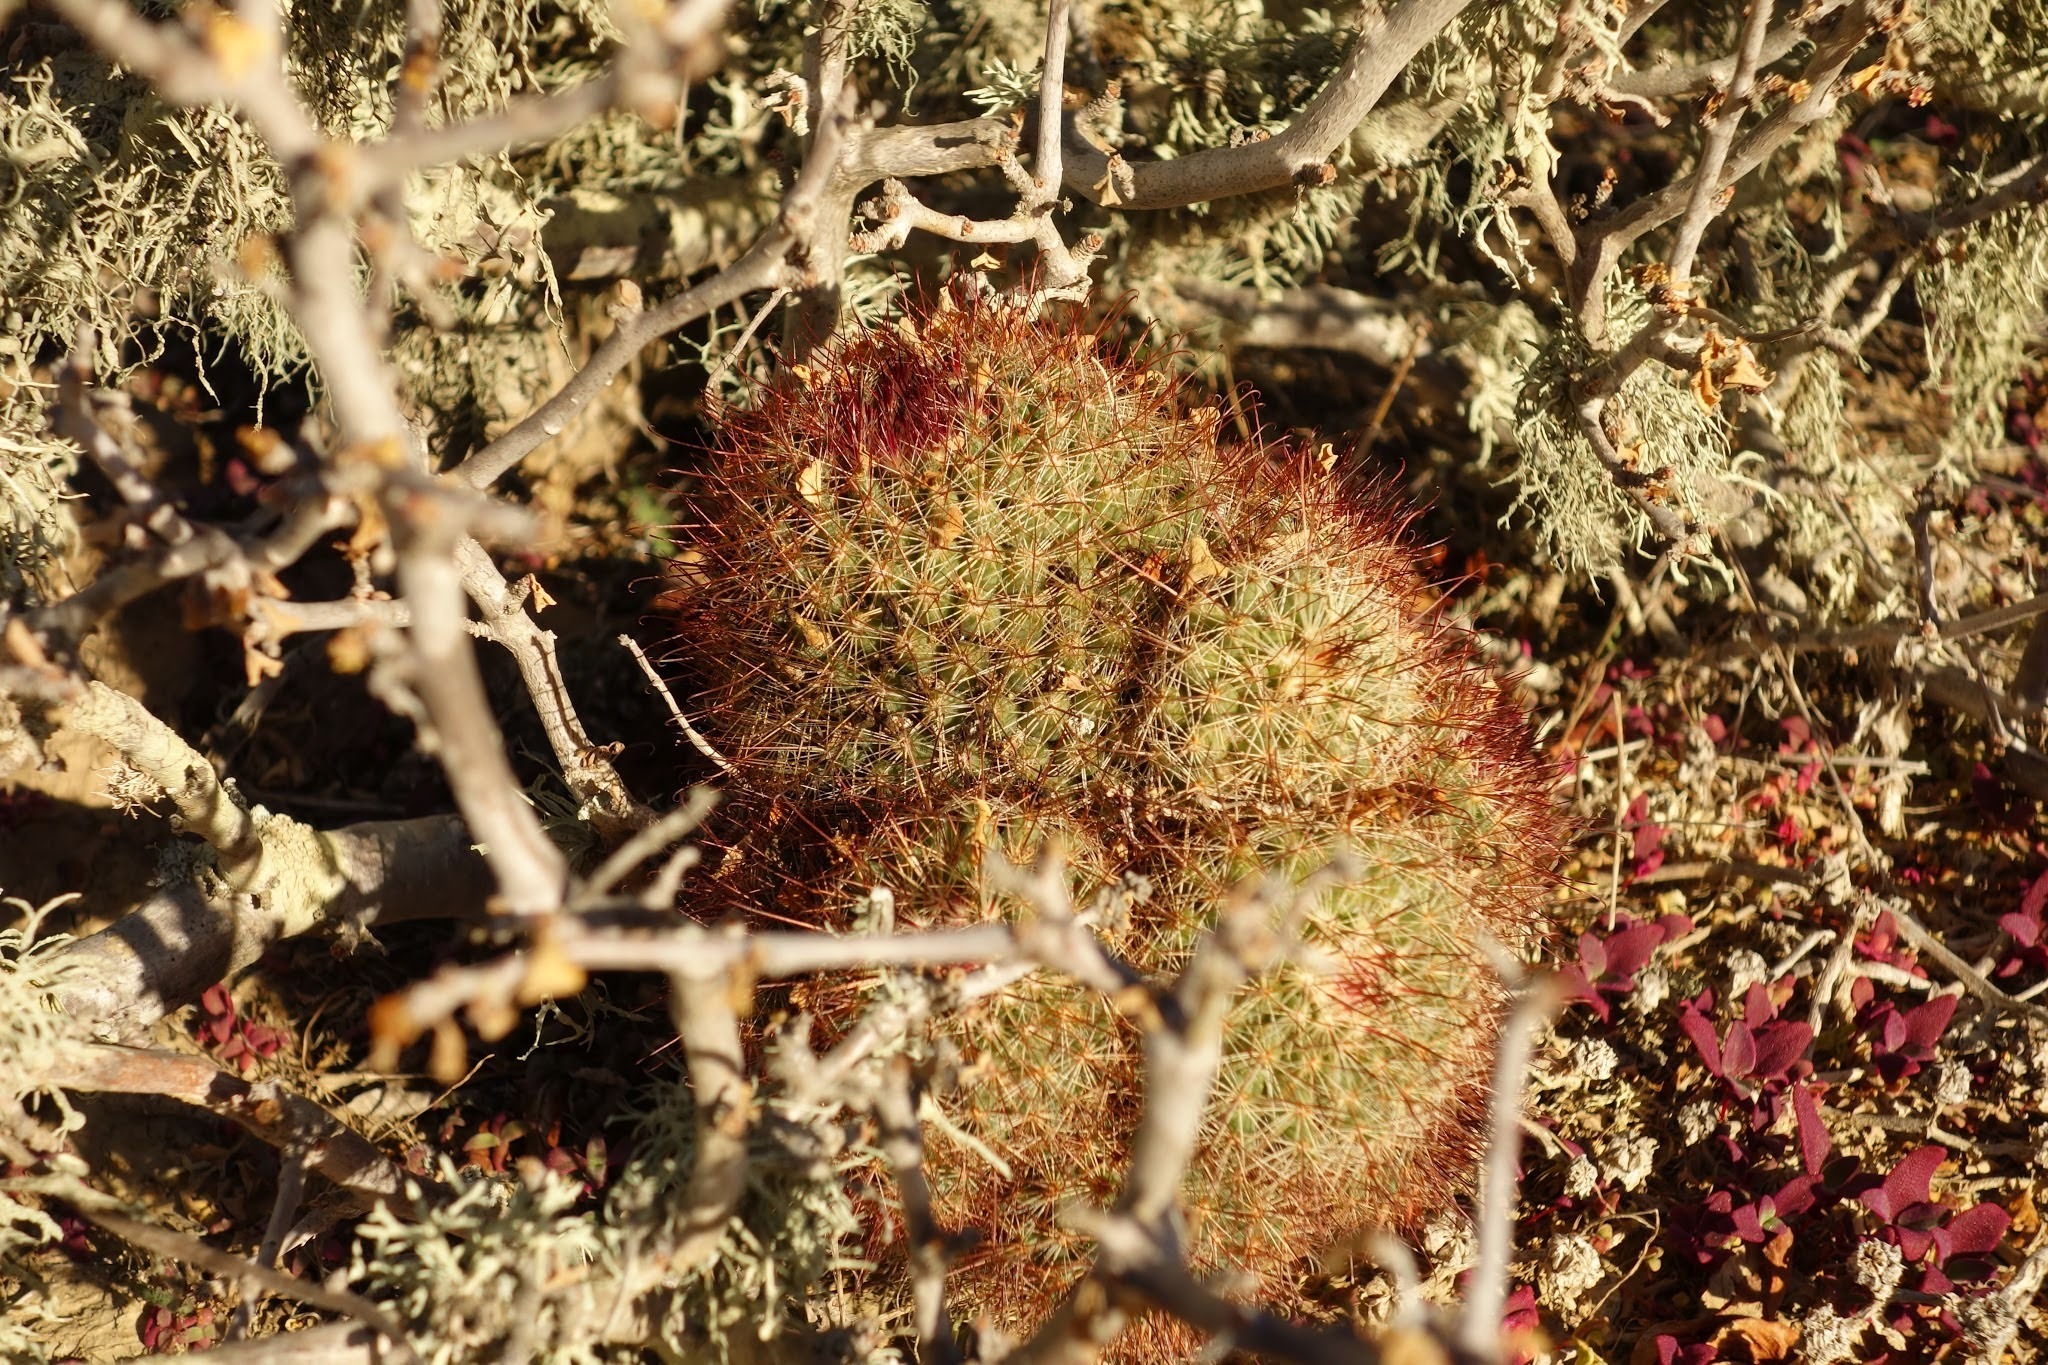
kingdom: Plantae
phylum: Tracheophyta
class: Magnoliopsida
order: Caryophyllales
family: Cactaceae
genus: Cochemiea
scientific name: Cochemiea dioica
